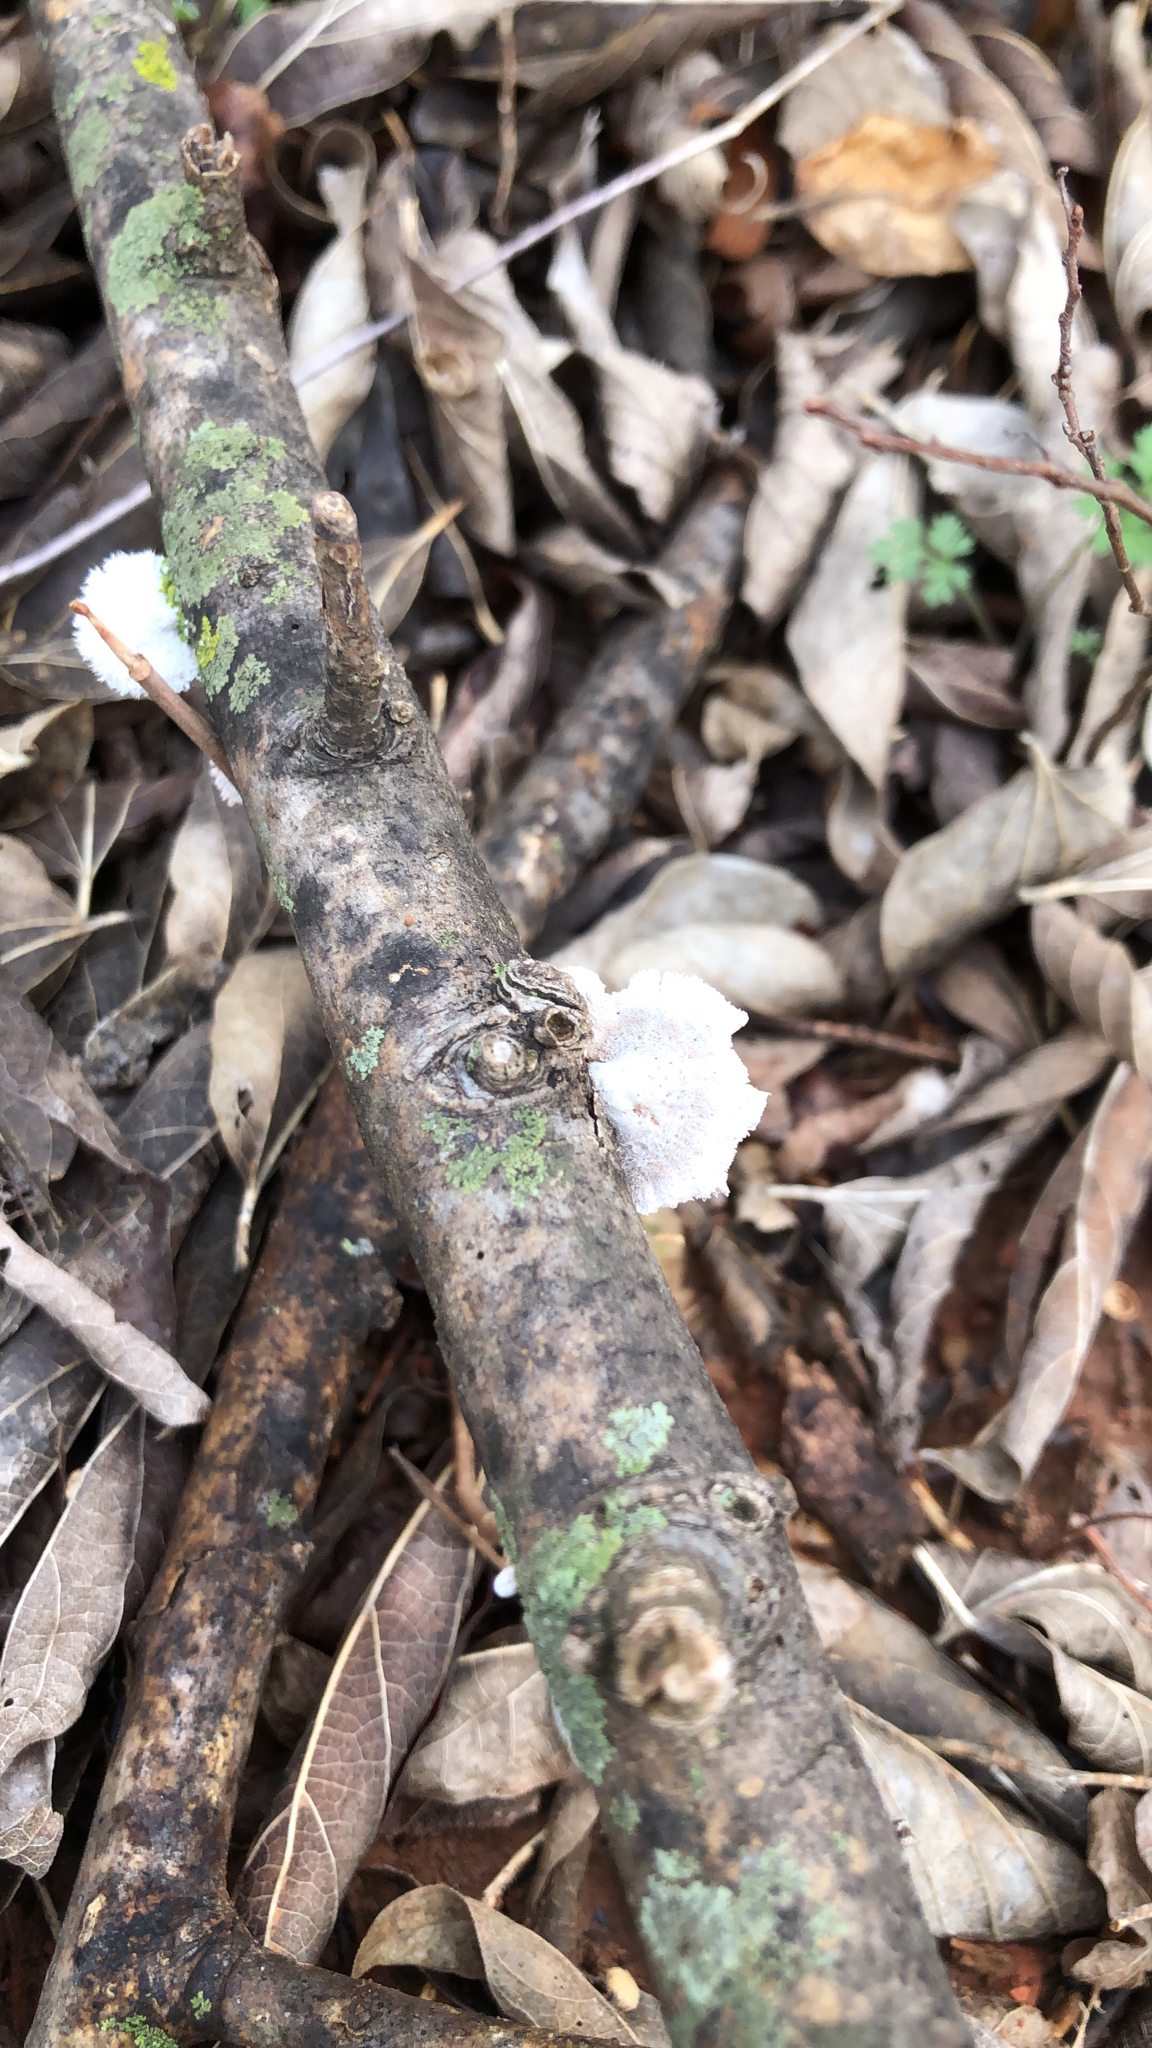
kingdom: Fungi
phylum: Basidiomycota
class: Agaricomycetes
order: Agaricales
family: Schizophyllaceae
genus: Schizophyllum
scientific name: Schizophyllum commune
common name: Common porecrust
